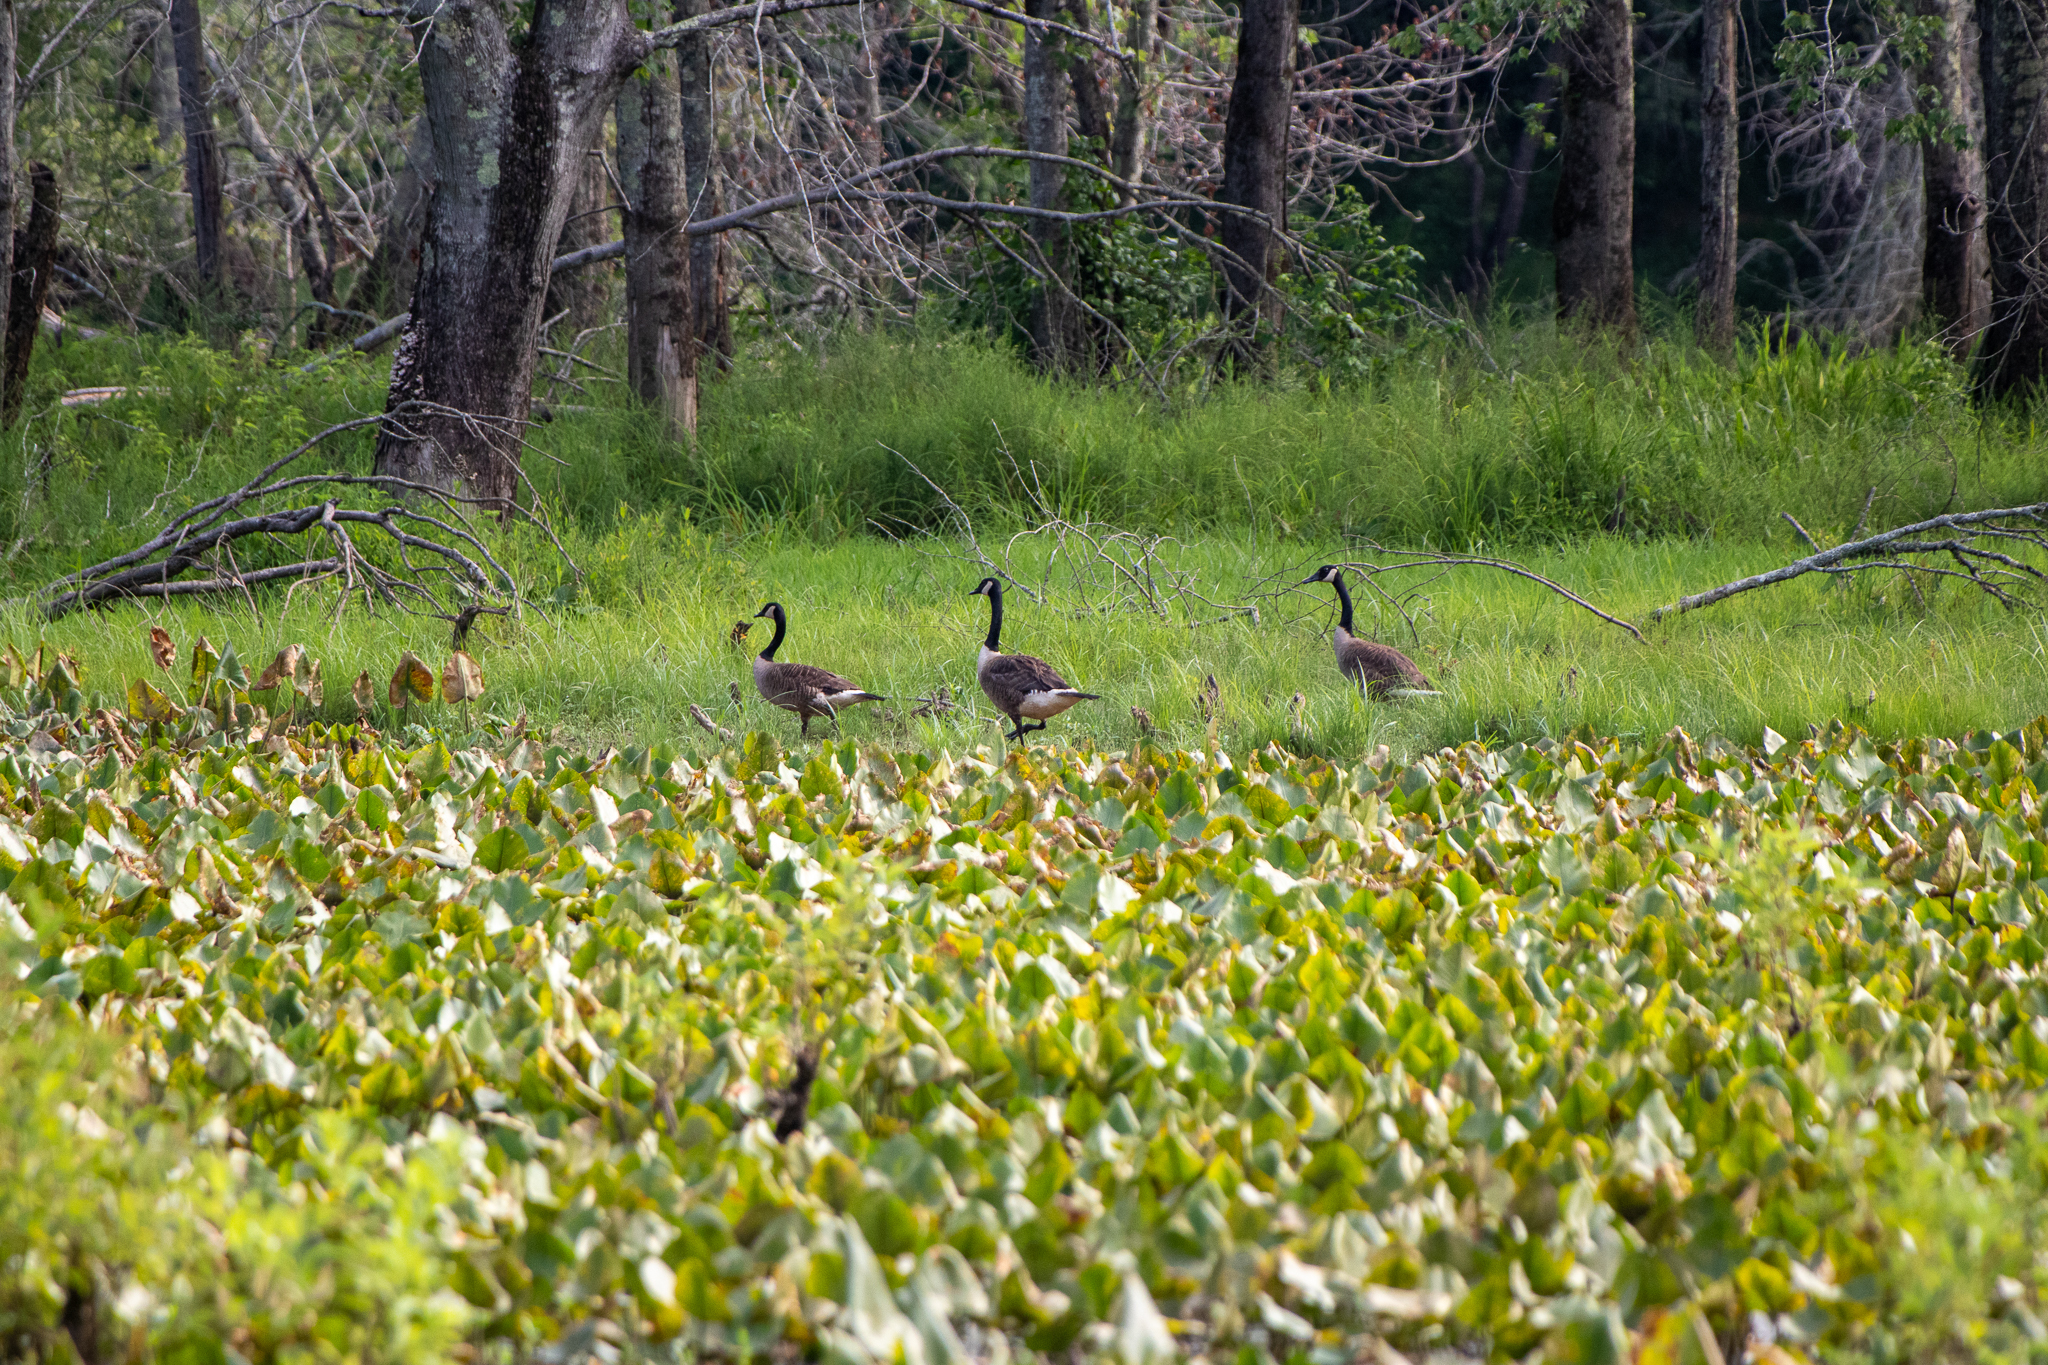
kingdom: Animalia
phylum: Chordata
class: Aves
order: Anseriformes
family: Anatidae
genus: Branta
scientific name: Branta canadensis
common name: Canada goose
